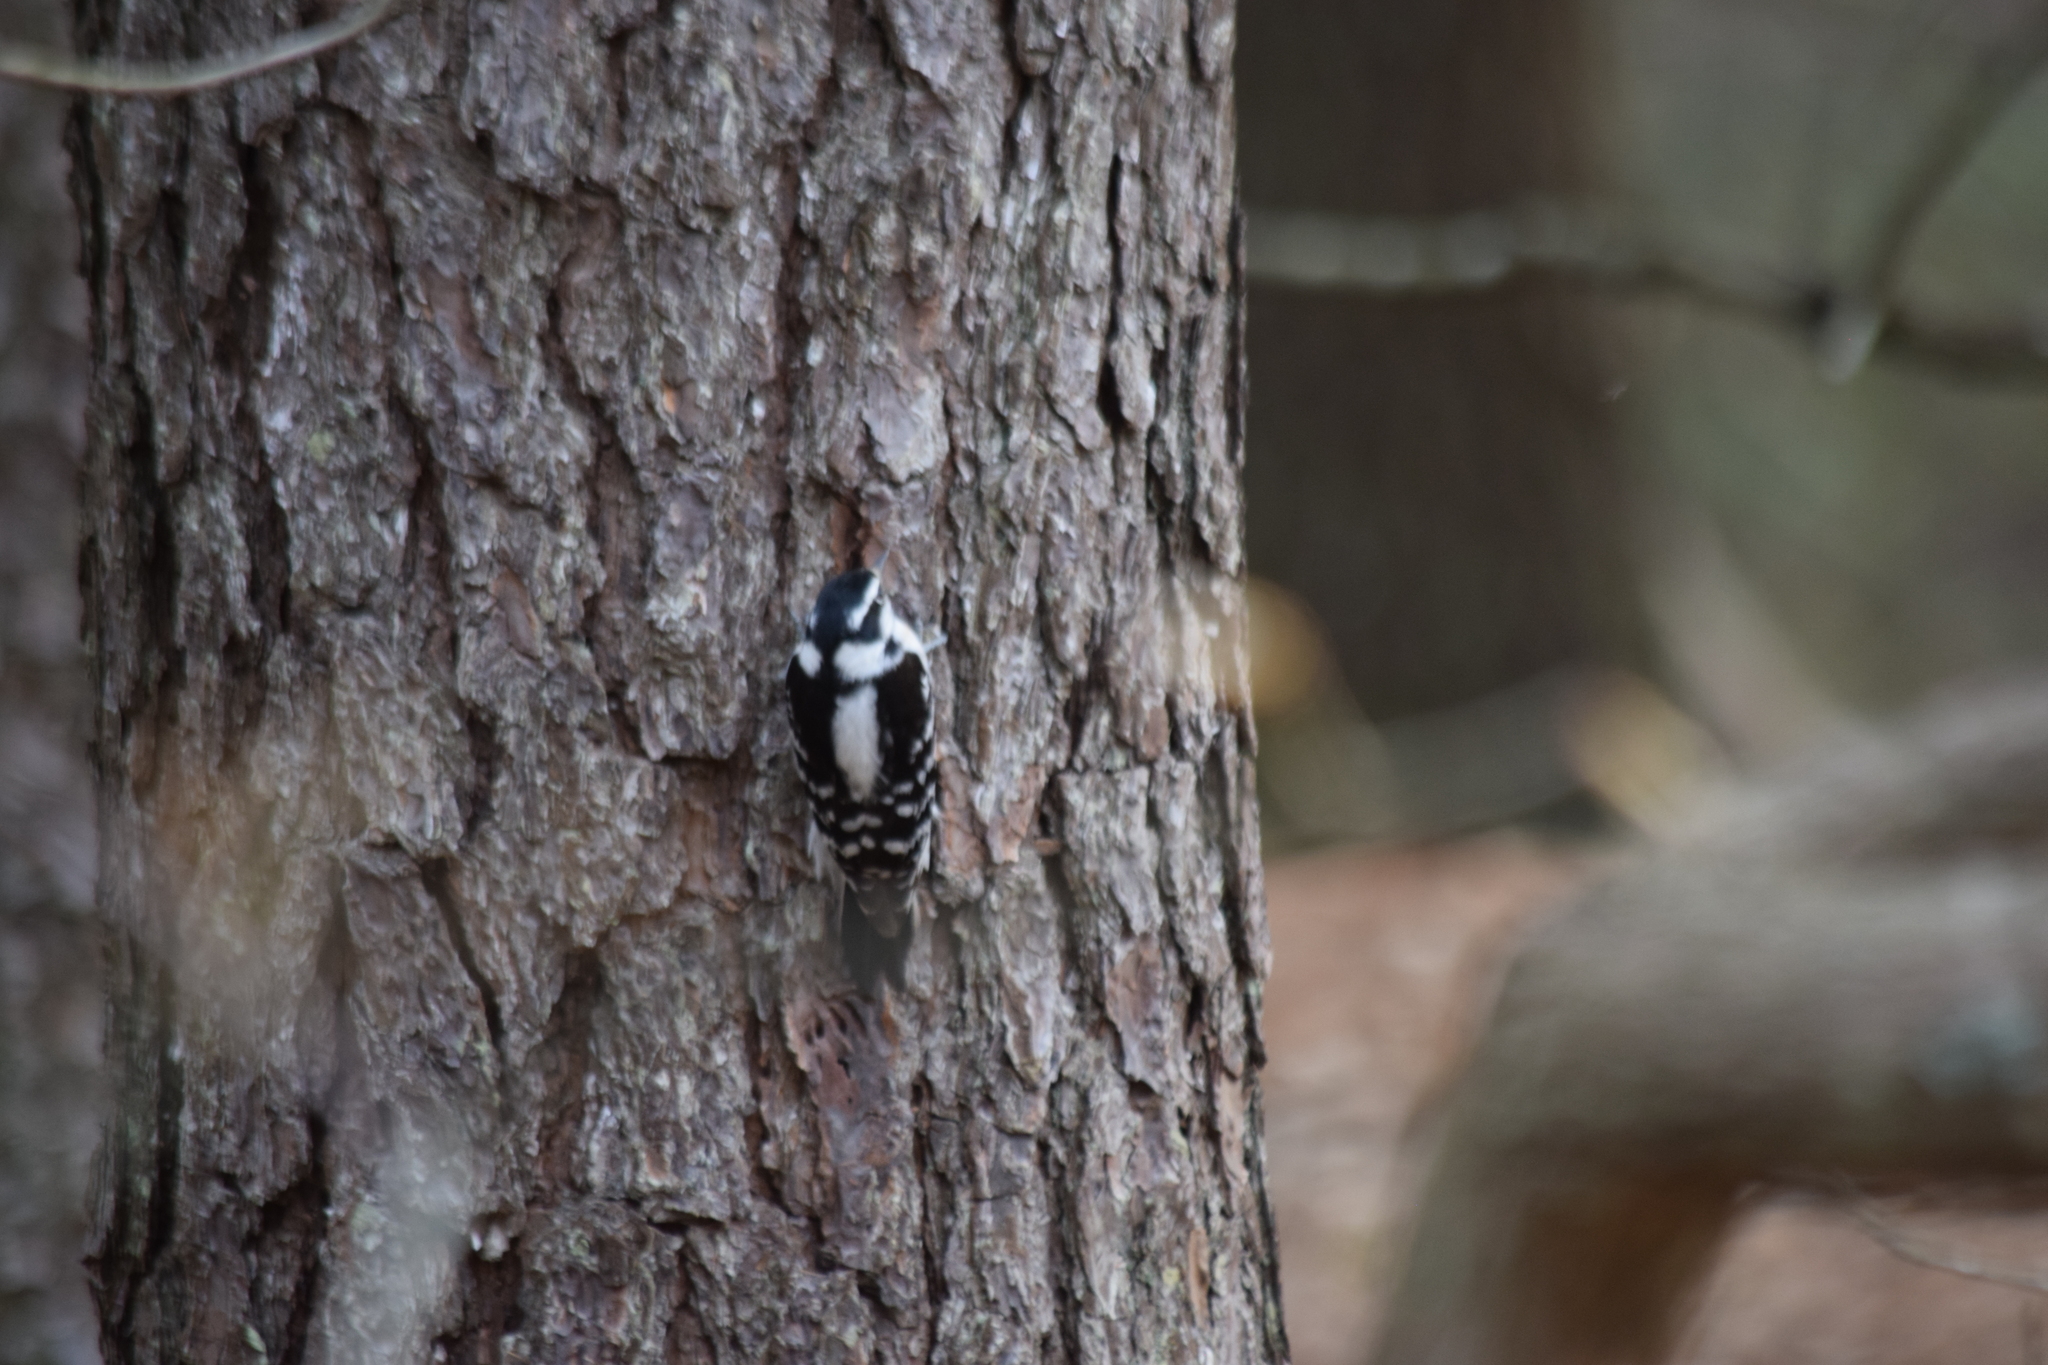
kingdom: Animalia
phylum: Chordata
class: Aves
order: Piciformes
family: Picidae
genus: Dryobates
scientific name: Dryobates pubescens
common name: Downy woodpecker
